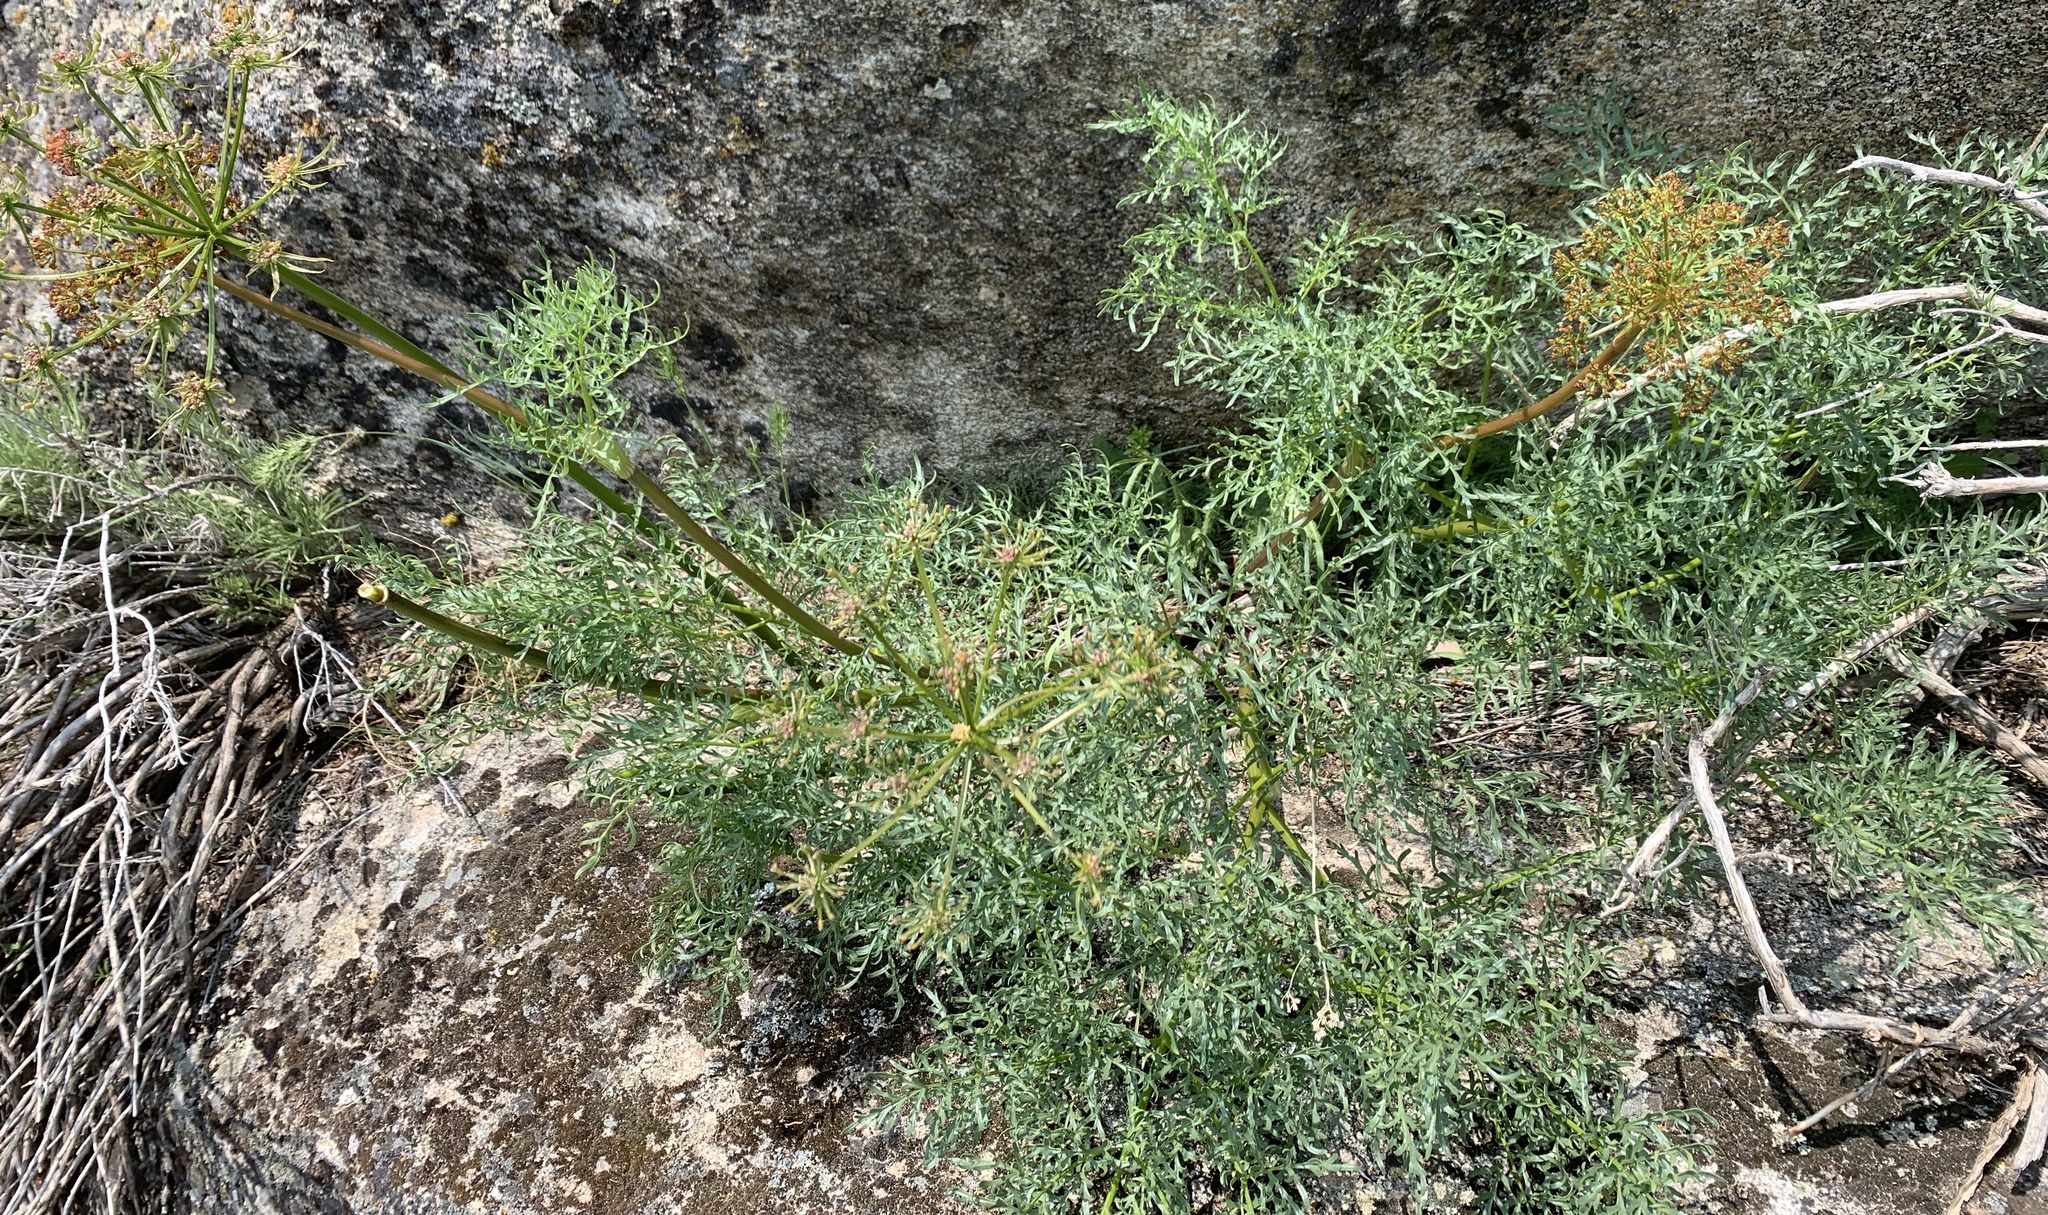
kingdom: Plantae
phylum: Tracheophyta
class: Magnoliopsida
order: Apiales
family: Apiaceae
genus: Lomatium
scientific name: Lomatium multifidum
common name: Carrot-leaved biscuitroot
